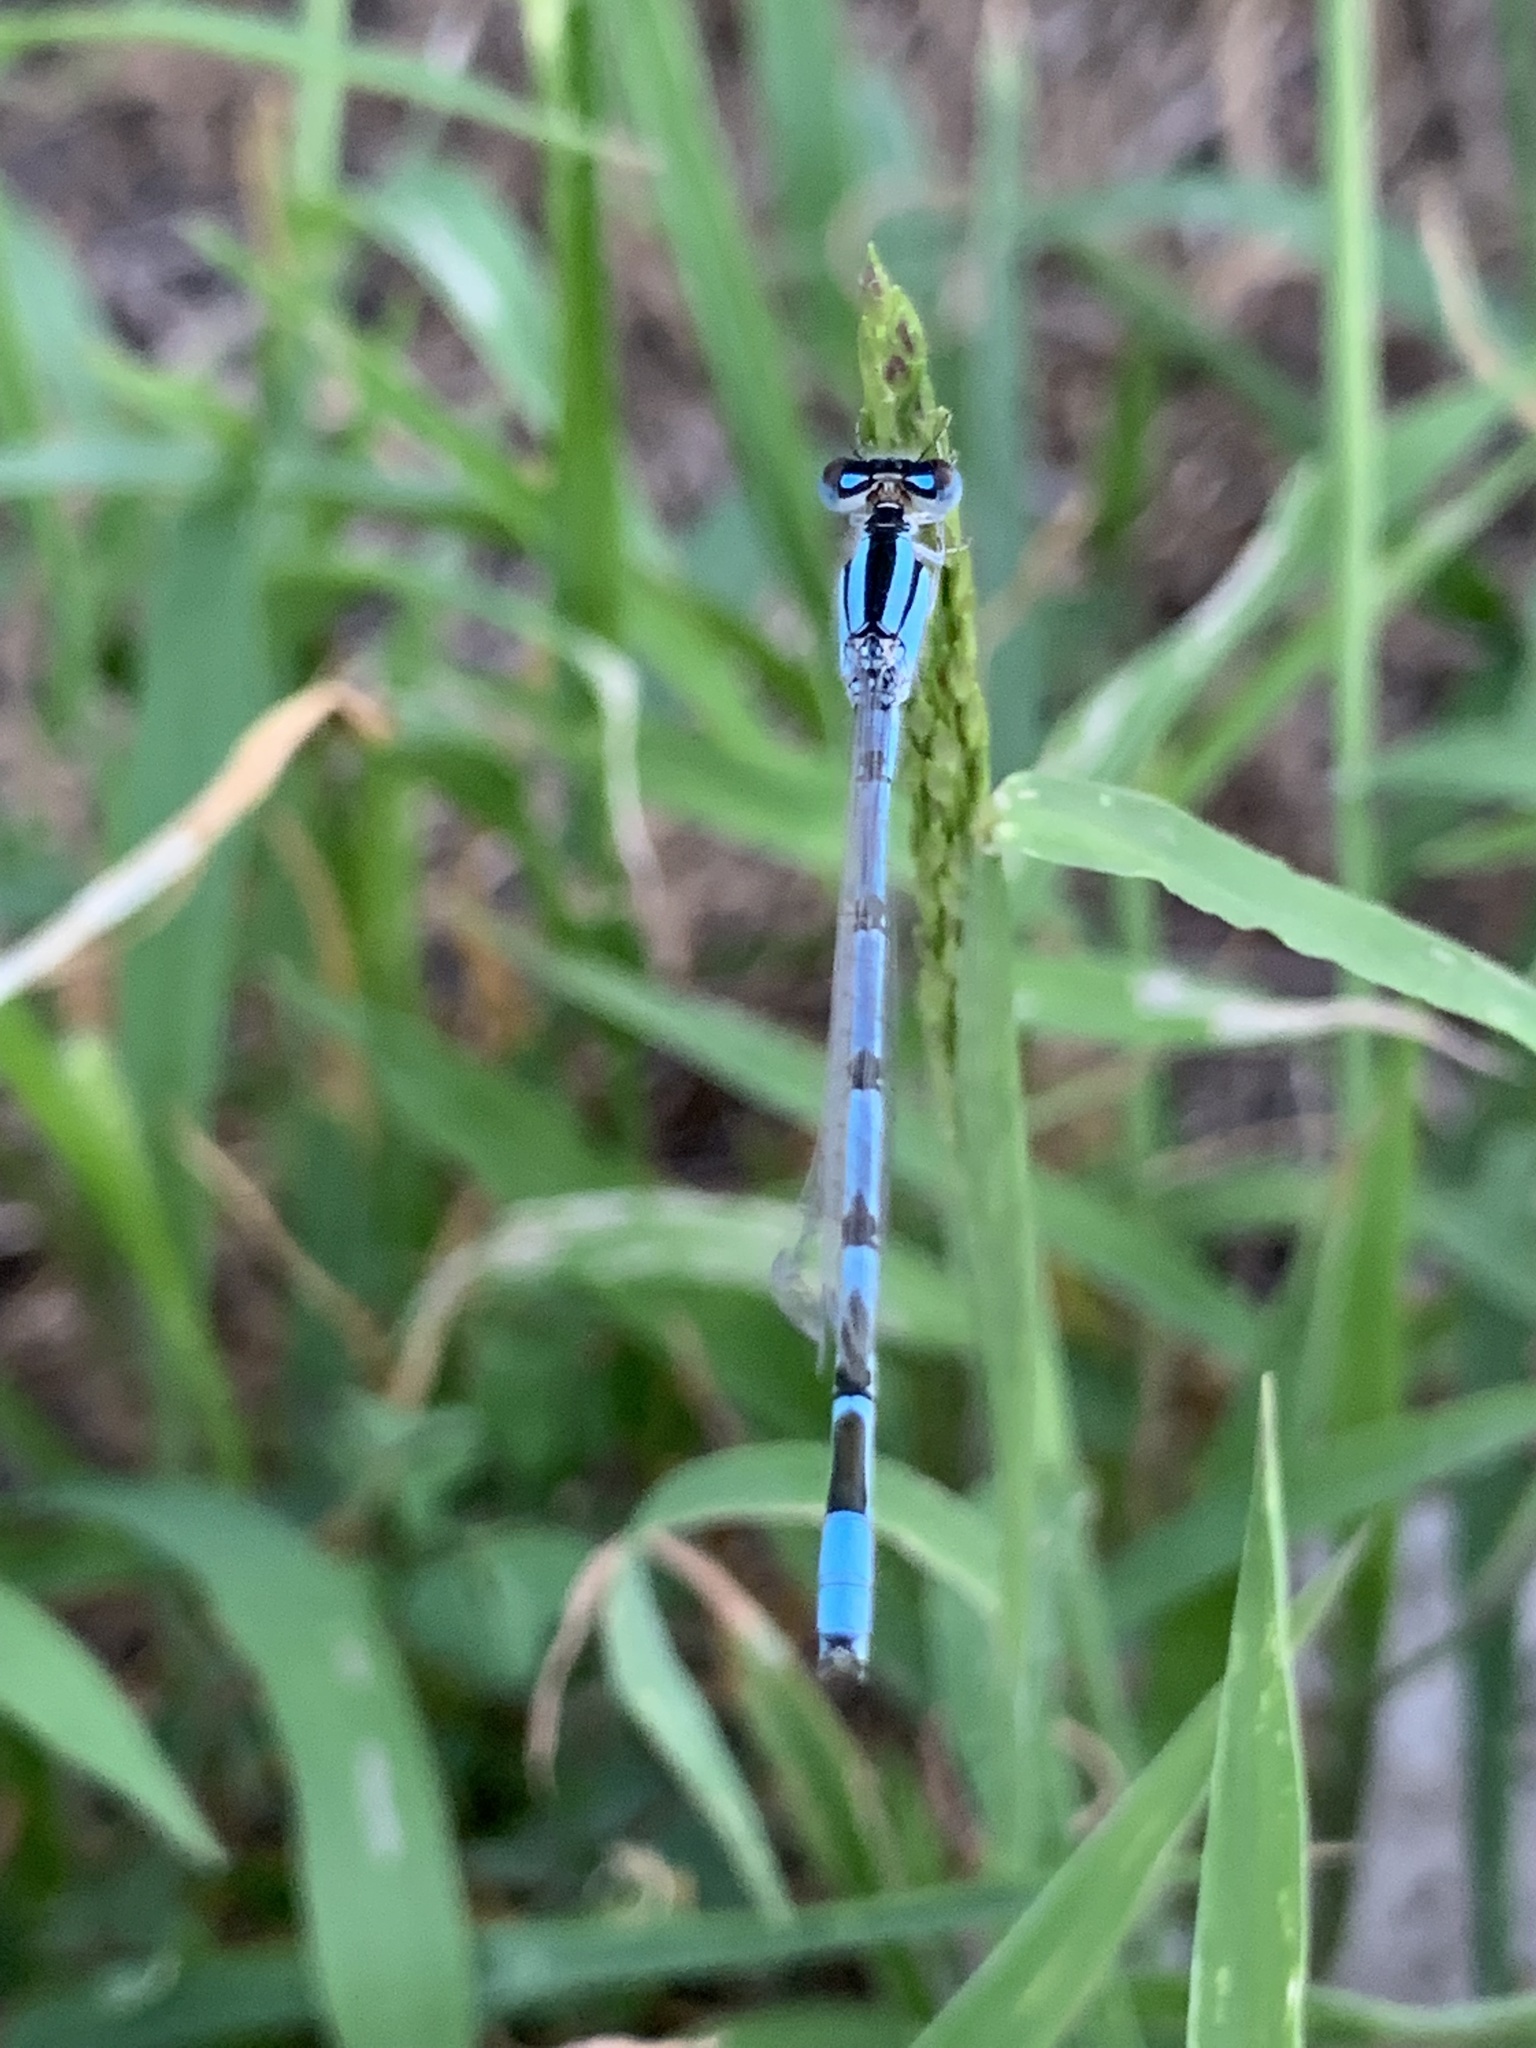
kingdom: Animalia
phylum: Arthropoda
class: Insecta
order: Odonata
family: Coenagrionidae
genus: Enallagma
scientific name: Enallagma civile
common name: Damselfly
